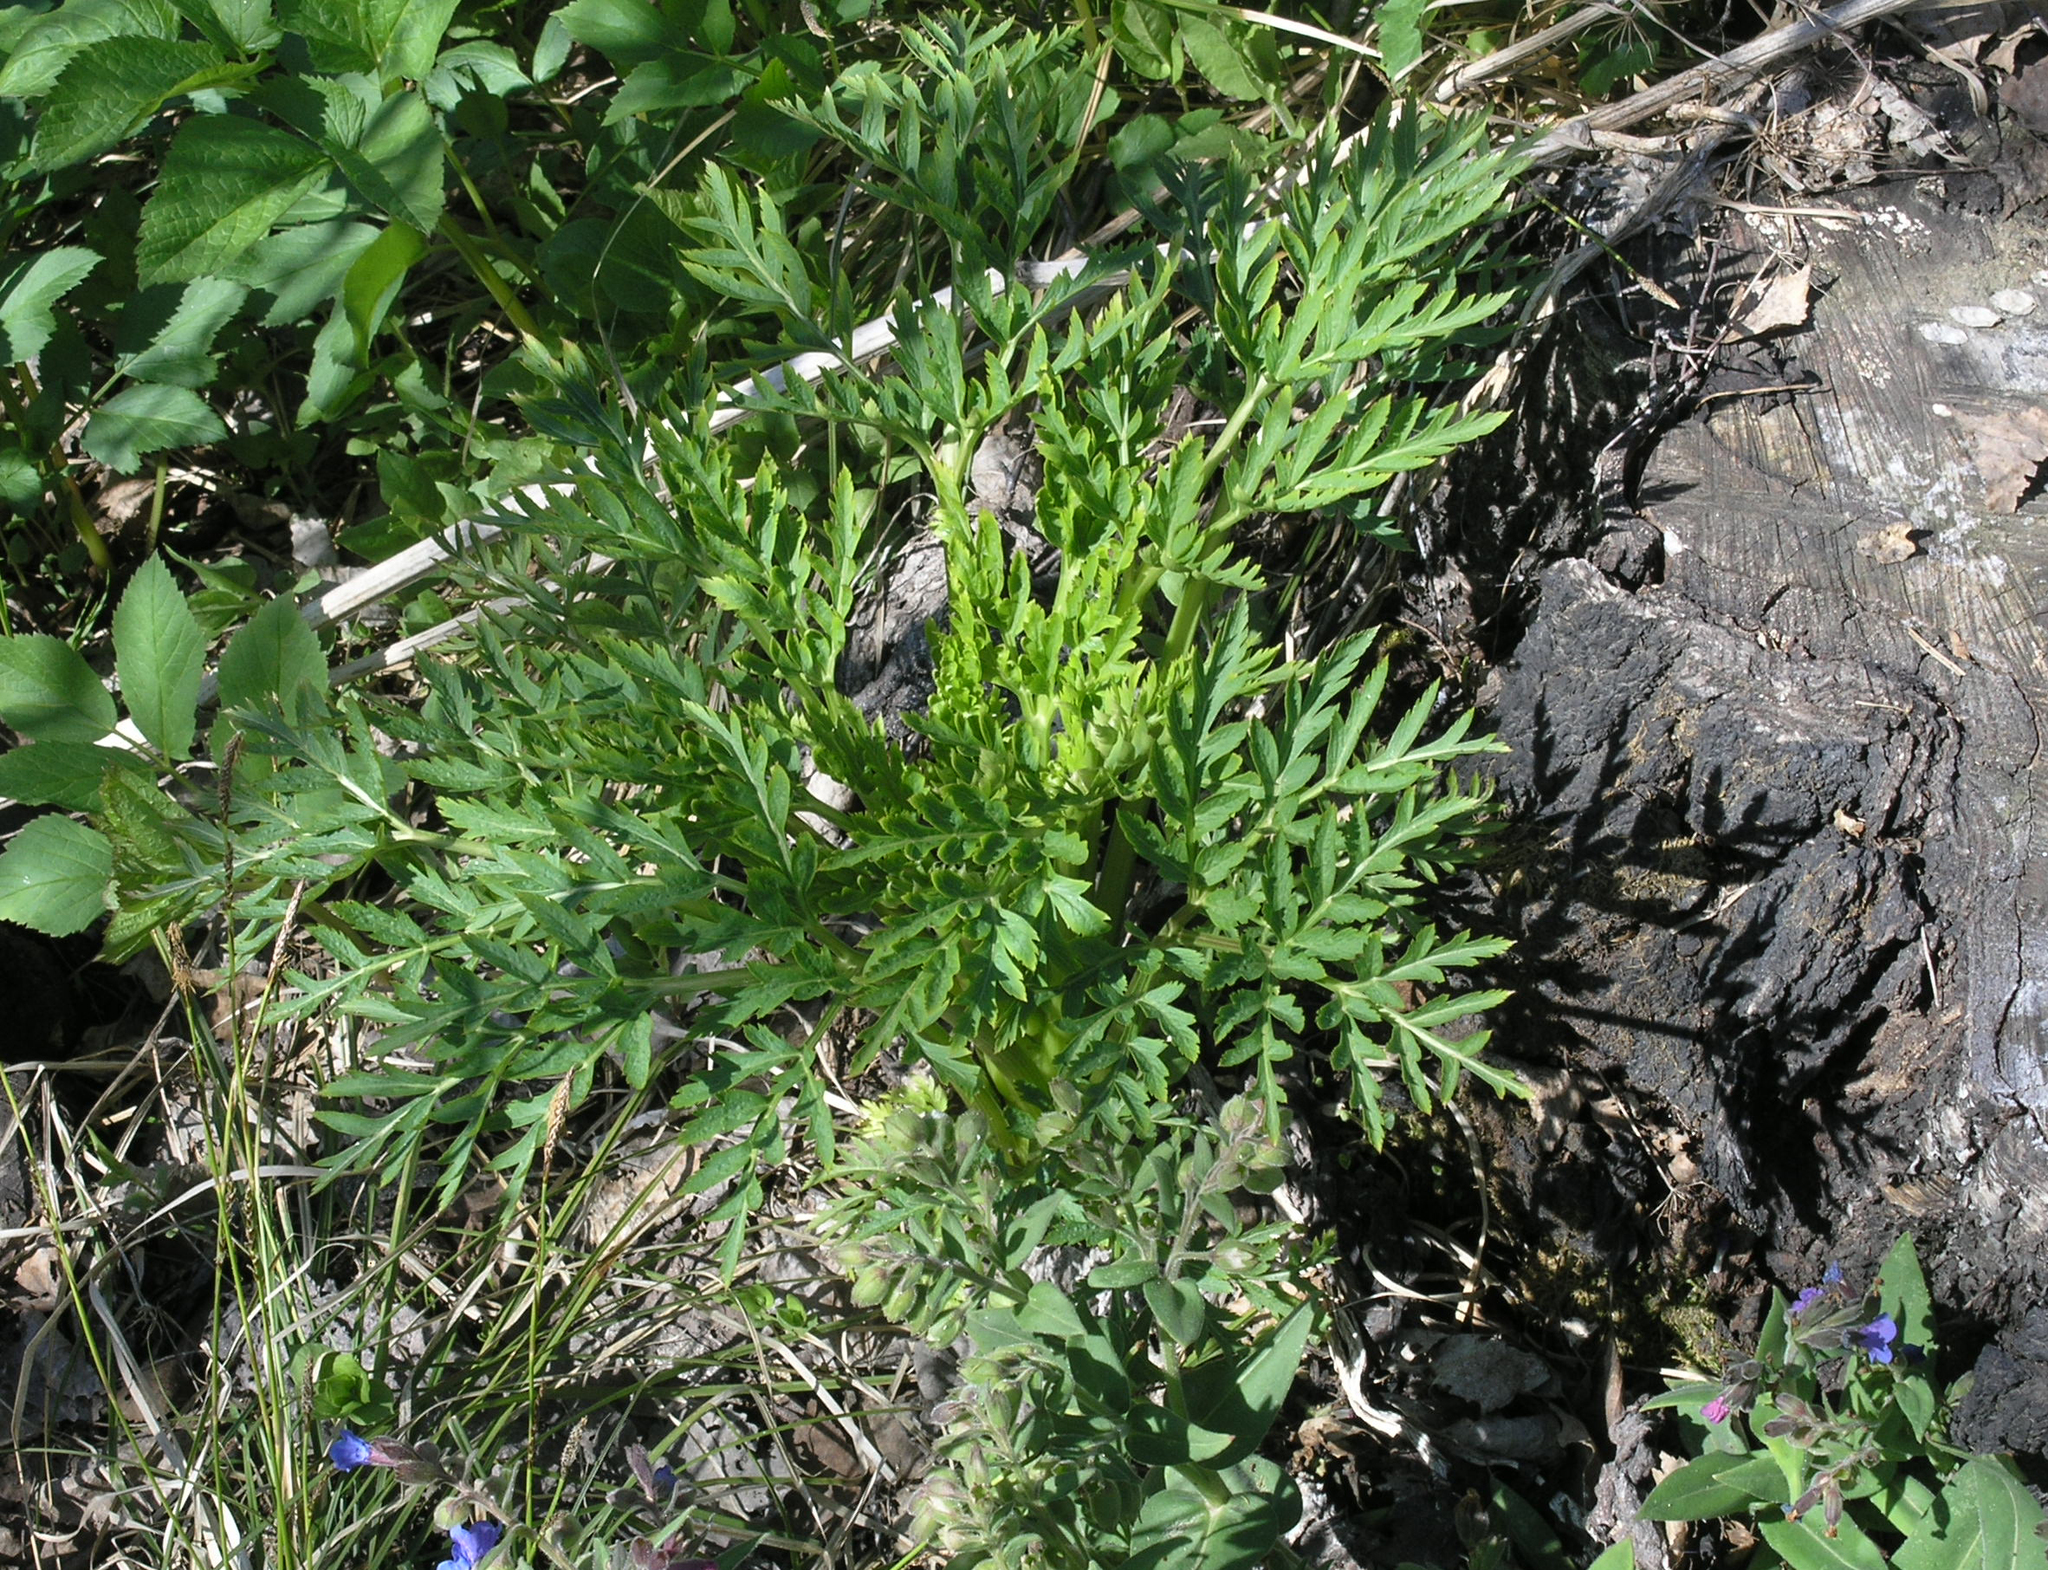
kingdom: Plantae
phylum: Tracheophyta
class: Magnoliopsida
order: Apiales
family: Apiaceae
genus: Pleurospermum
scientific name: Pleurospermum uralense
